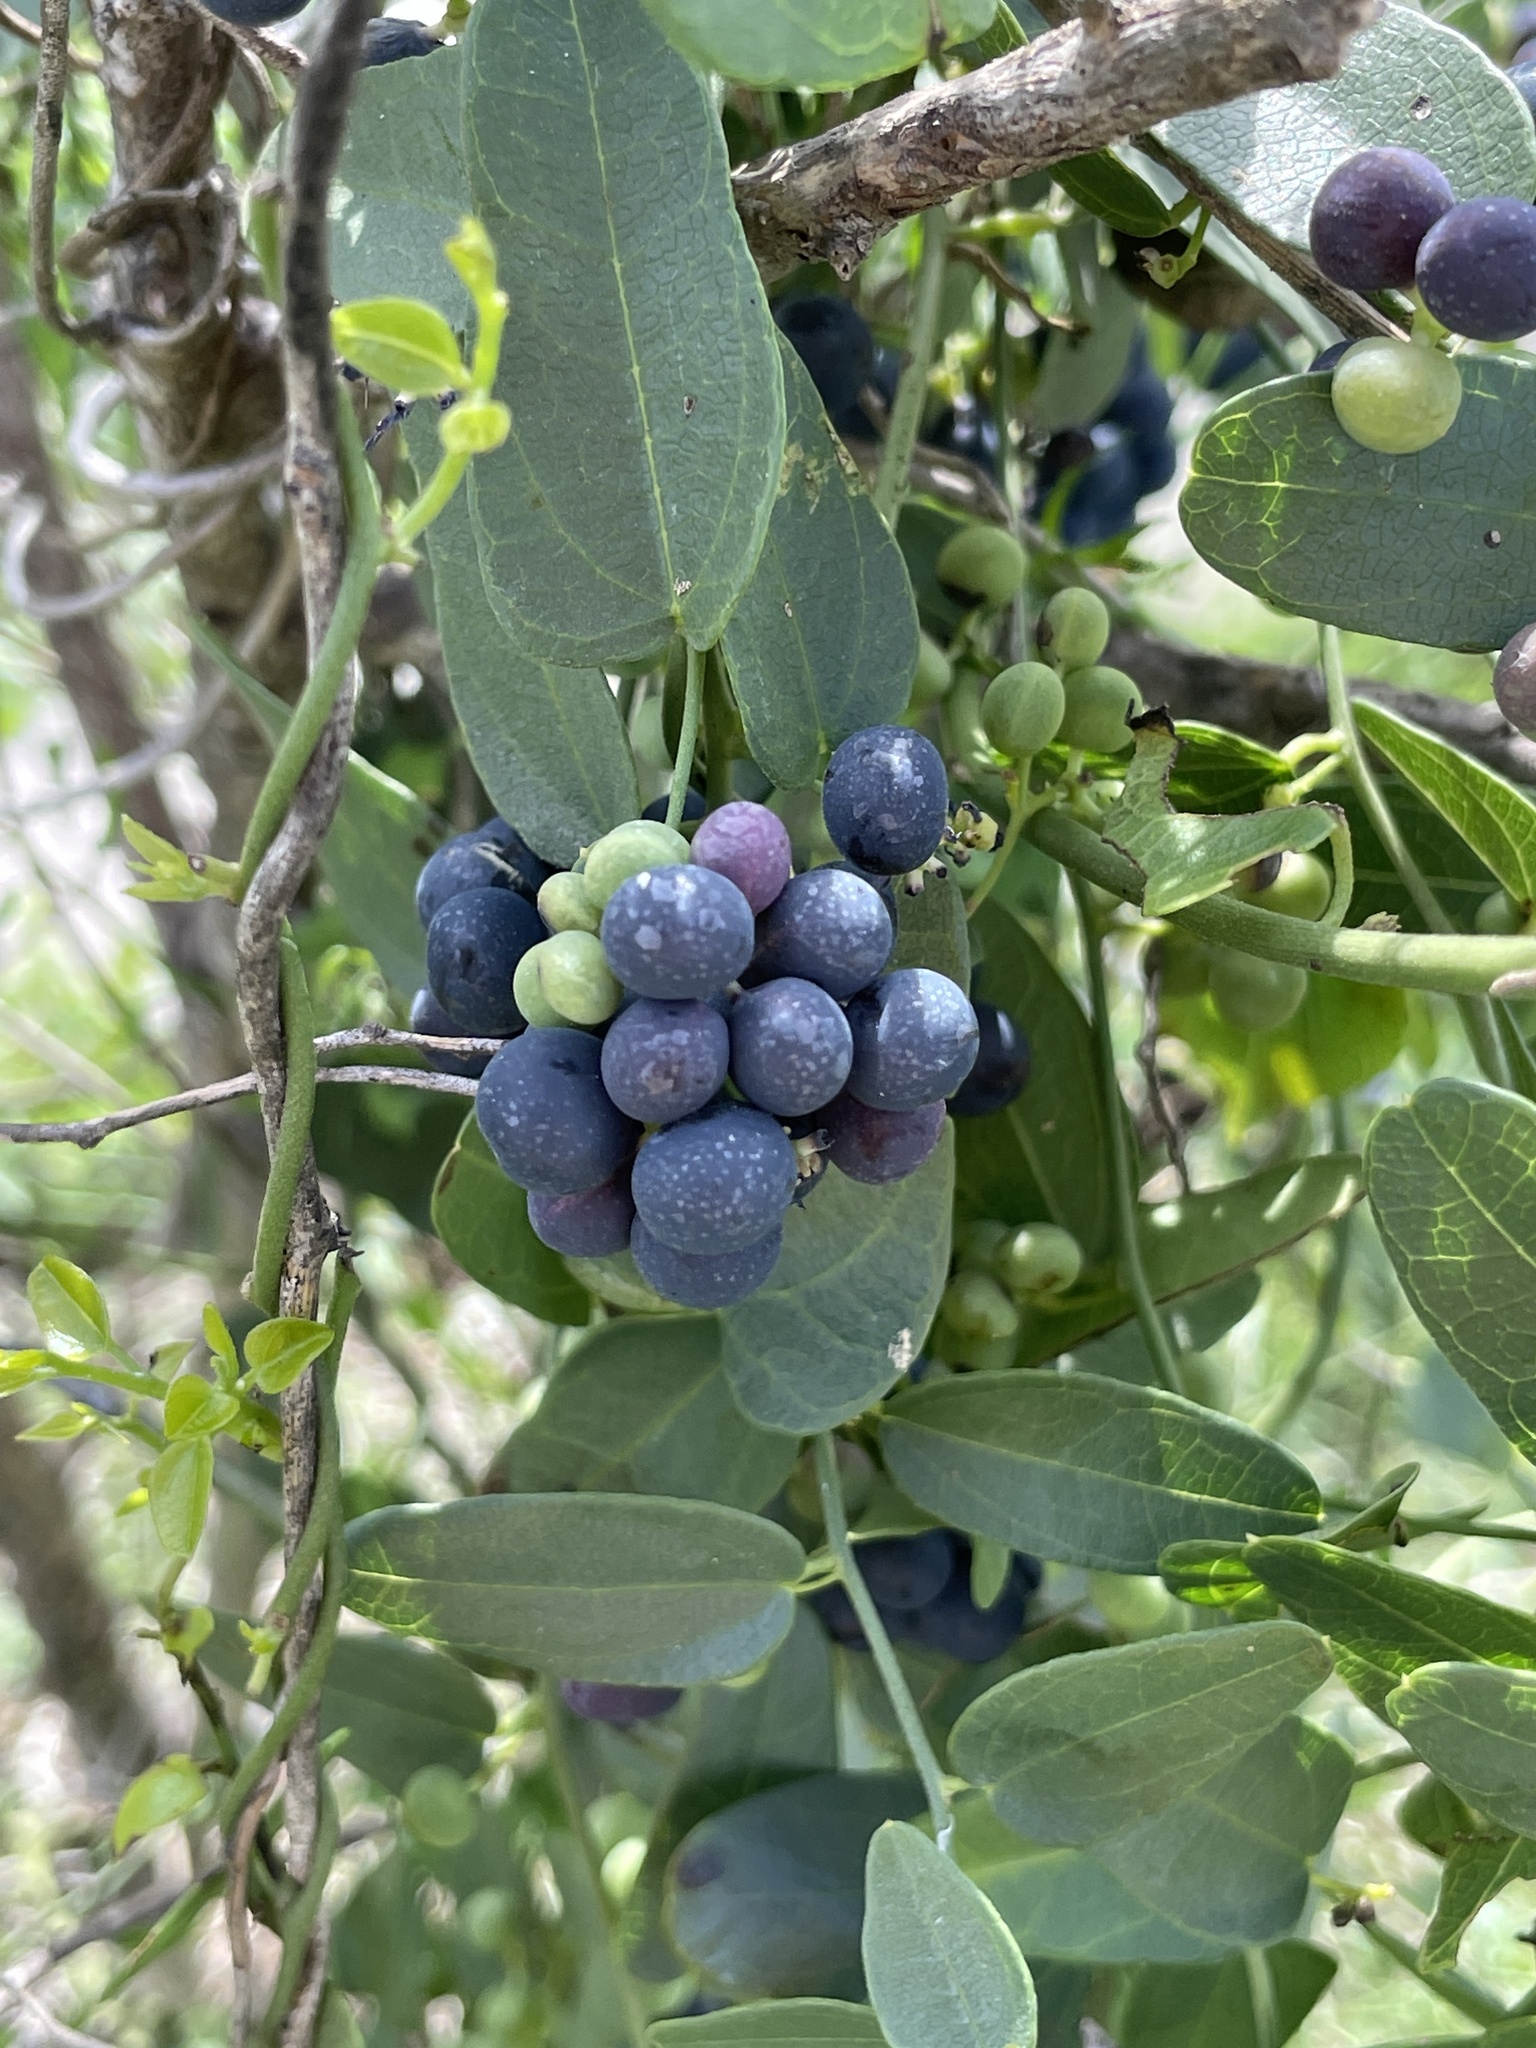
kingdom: Plantae
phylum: Tracheophyta
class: Magnoliopsida
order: Ranunculales
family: Menispermaceae
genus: Cocculus
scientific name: Cocculus diversifolius
